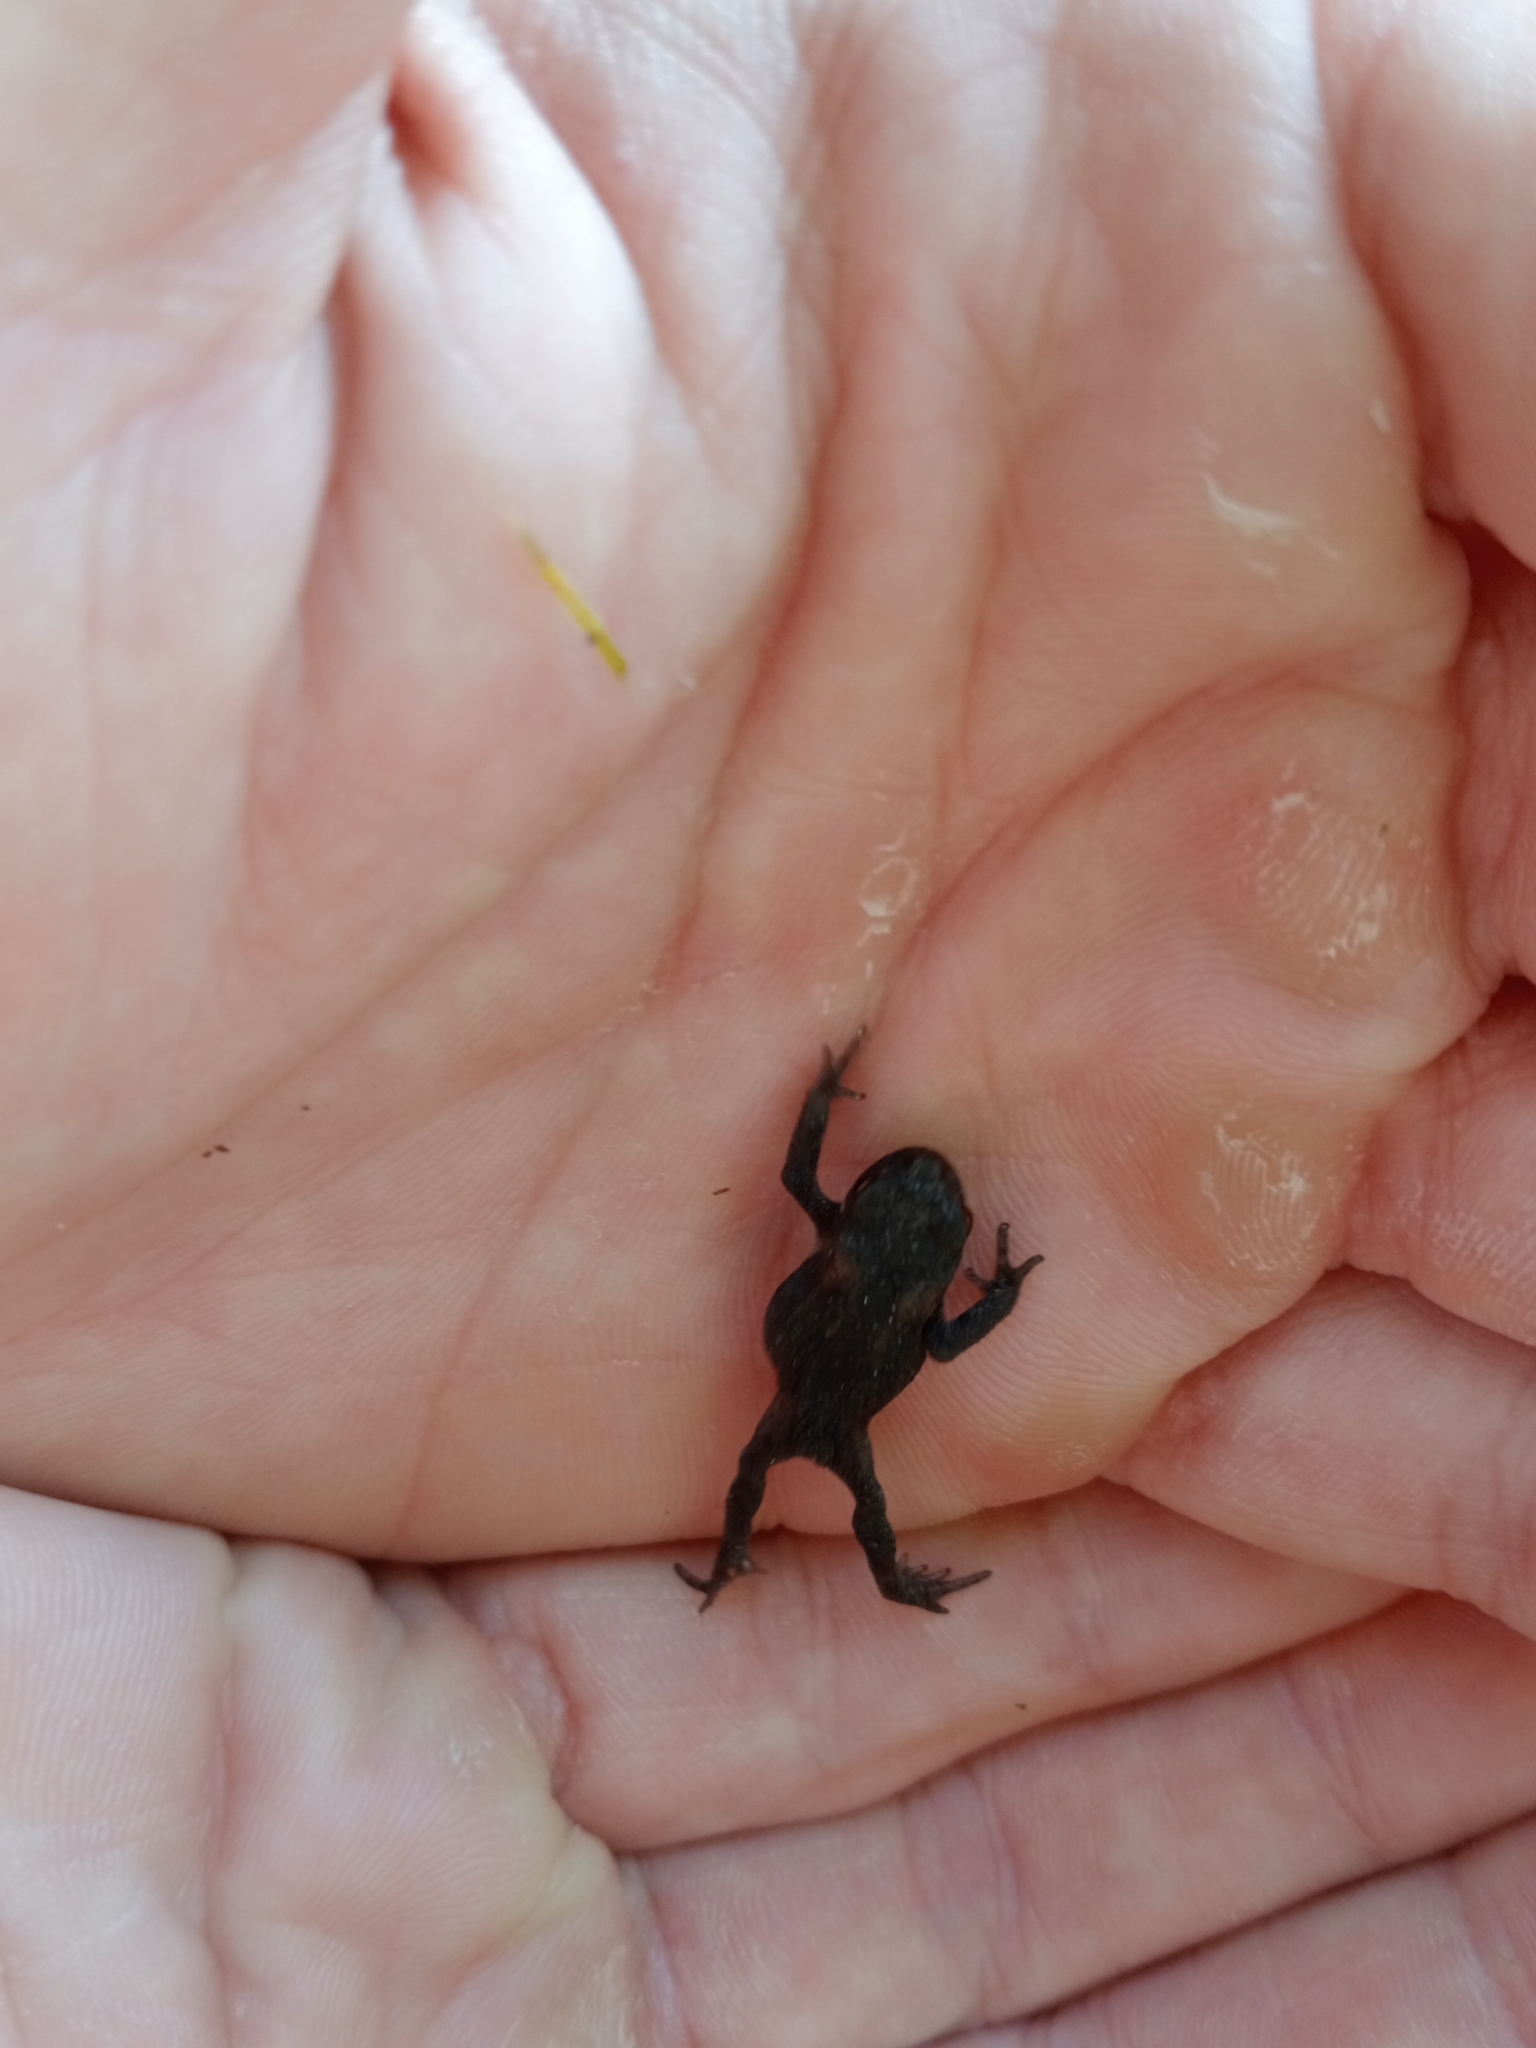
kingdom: Animalia
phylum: Chordata
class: Amphibia
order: Anura
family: Bufonidae
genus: Bufo
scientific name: Bufo bufo
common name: Common toad
